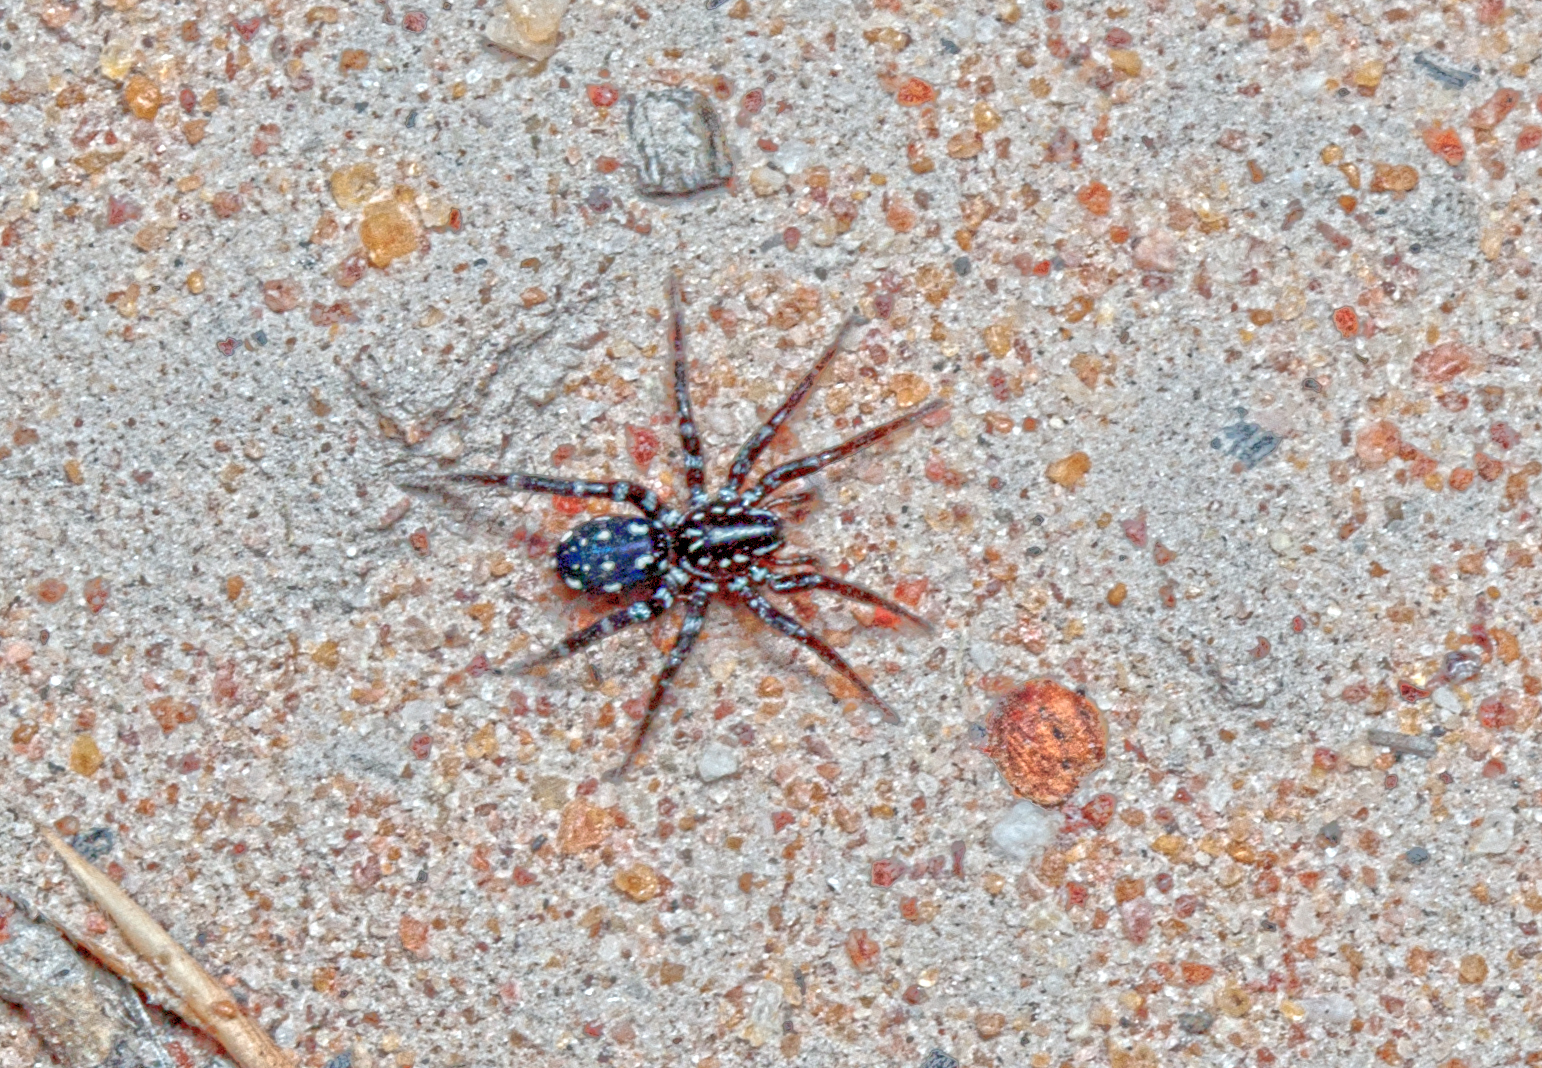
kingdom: Animalia
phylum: Arthropoda
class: Arachnida
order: Araneae
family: Corinnidae
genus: Nyssus
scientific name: Nyssus albopunctatus
